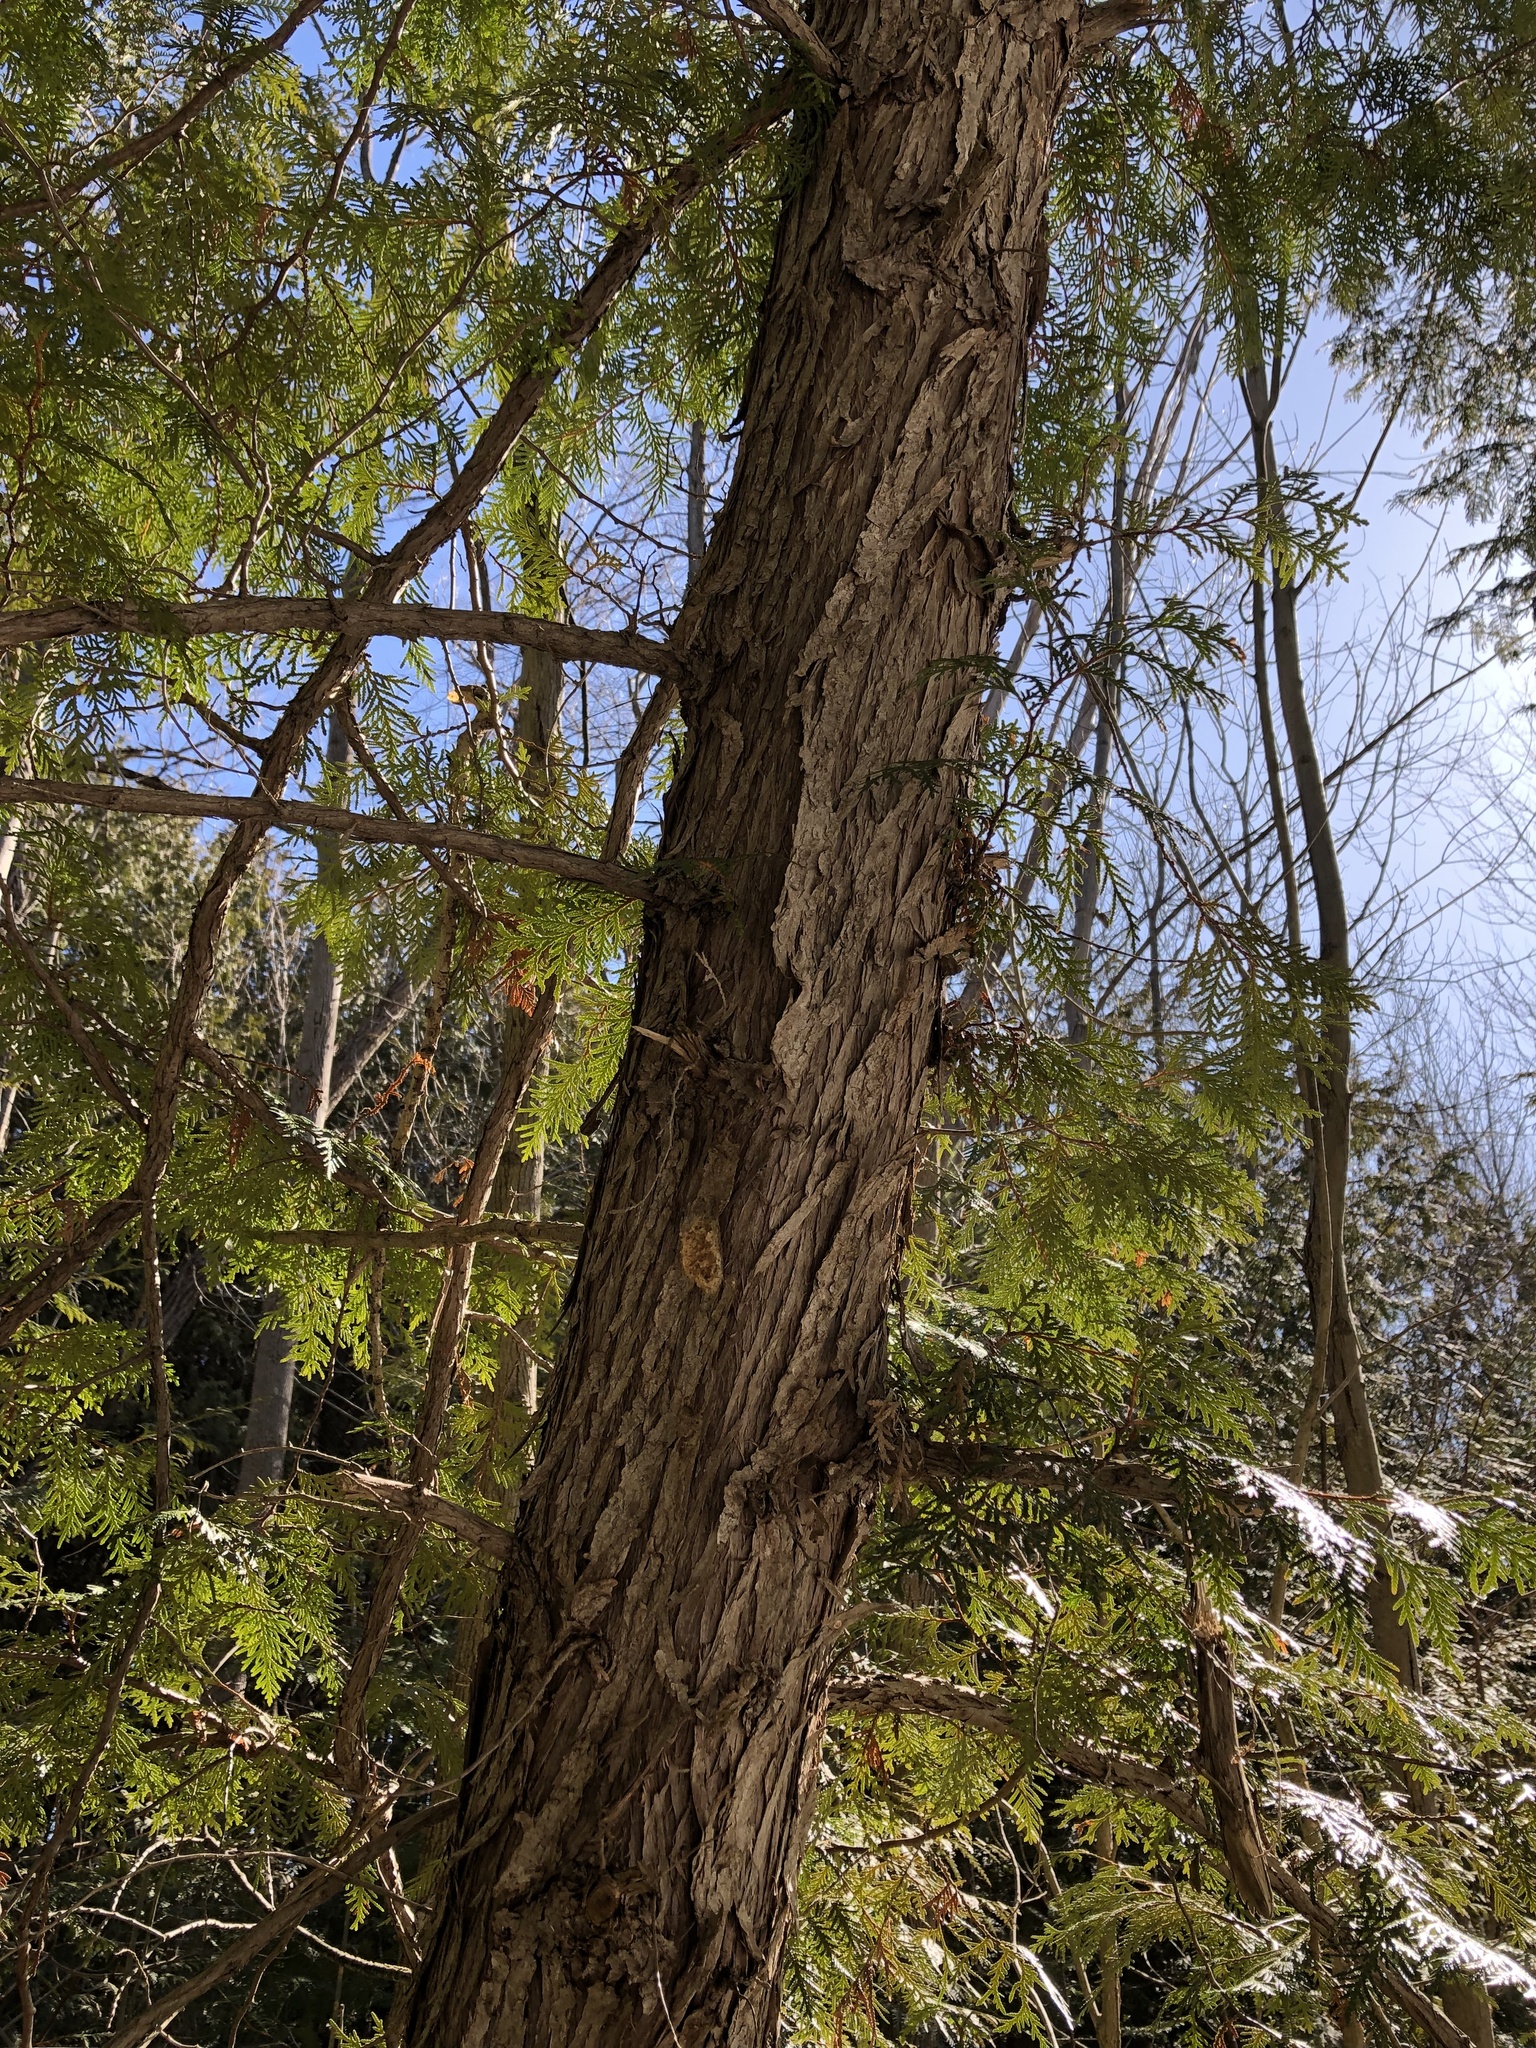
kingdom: Plantae
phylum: Tracheophyta
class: Pinopsida
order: Pinales
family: Cupressaceae
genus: Thuja
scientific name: Thuja occidentalis
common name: Northern white-cedar
